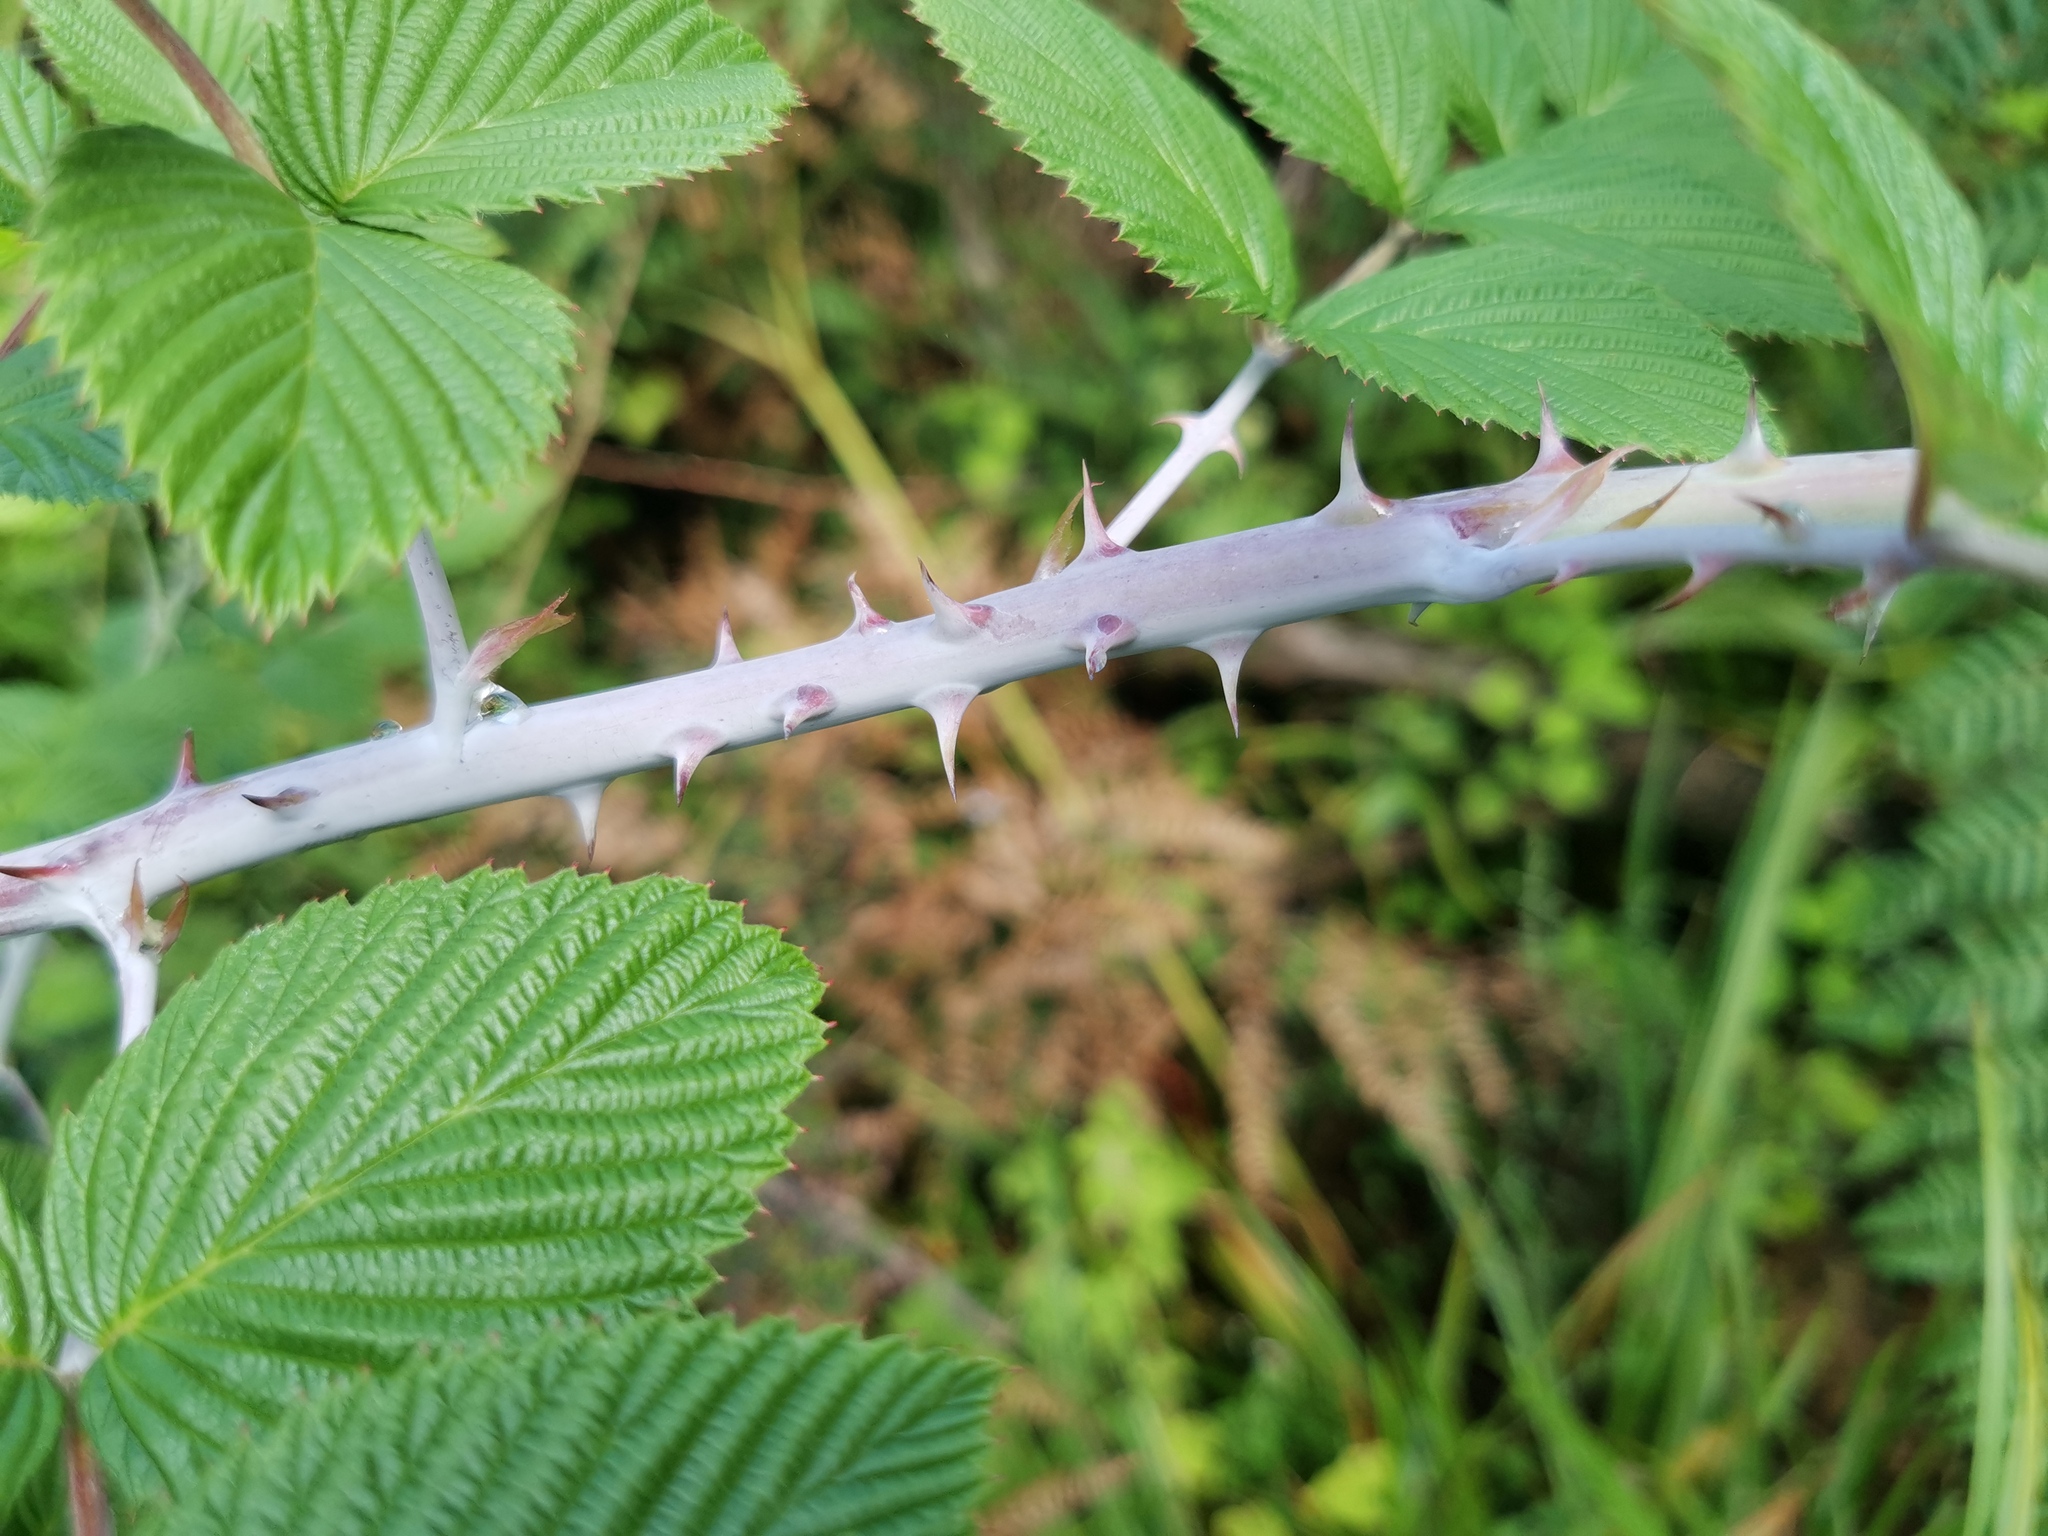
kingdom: Plantae
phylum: Tracheophyta
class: Magnoliopsida
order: Rosales
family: Rosaceae
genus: Rubus
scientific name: Rubus niveus
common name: Snowpeaks raspberry
